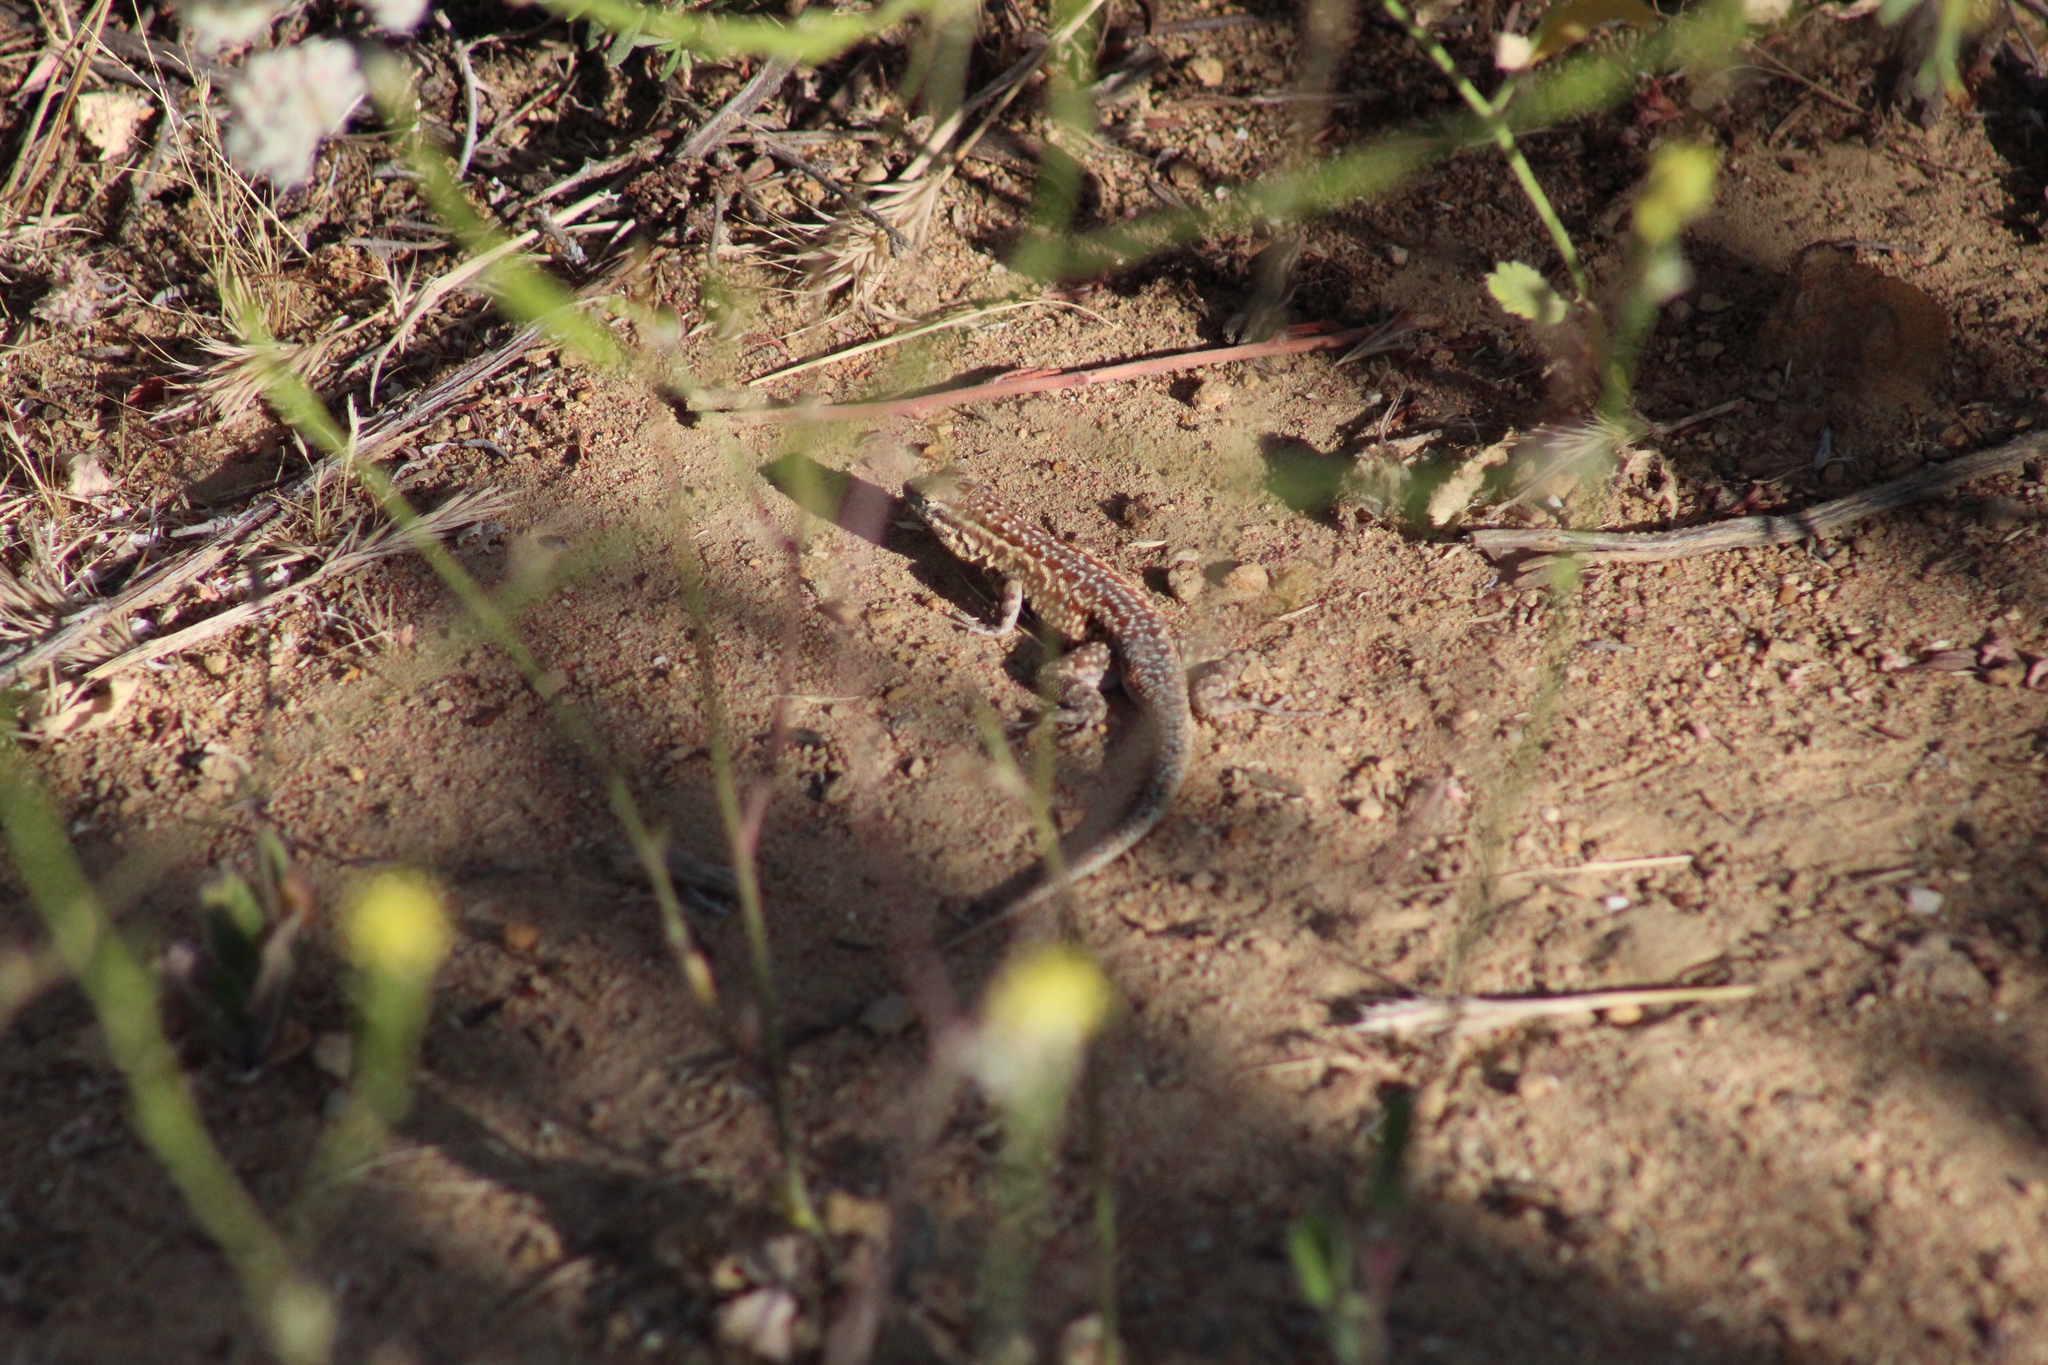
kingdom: Animalia
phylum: Chordata
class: Squamata
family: Phrynosomatidae
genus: Uta
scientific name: Uta stansburiana
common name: Side-blotched lizard
